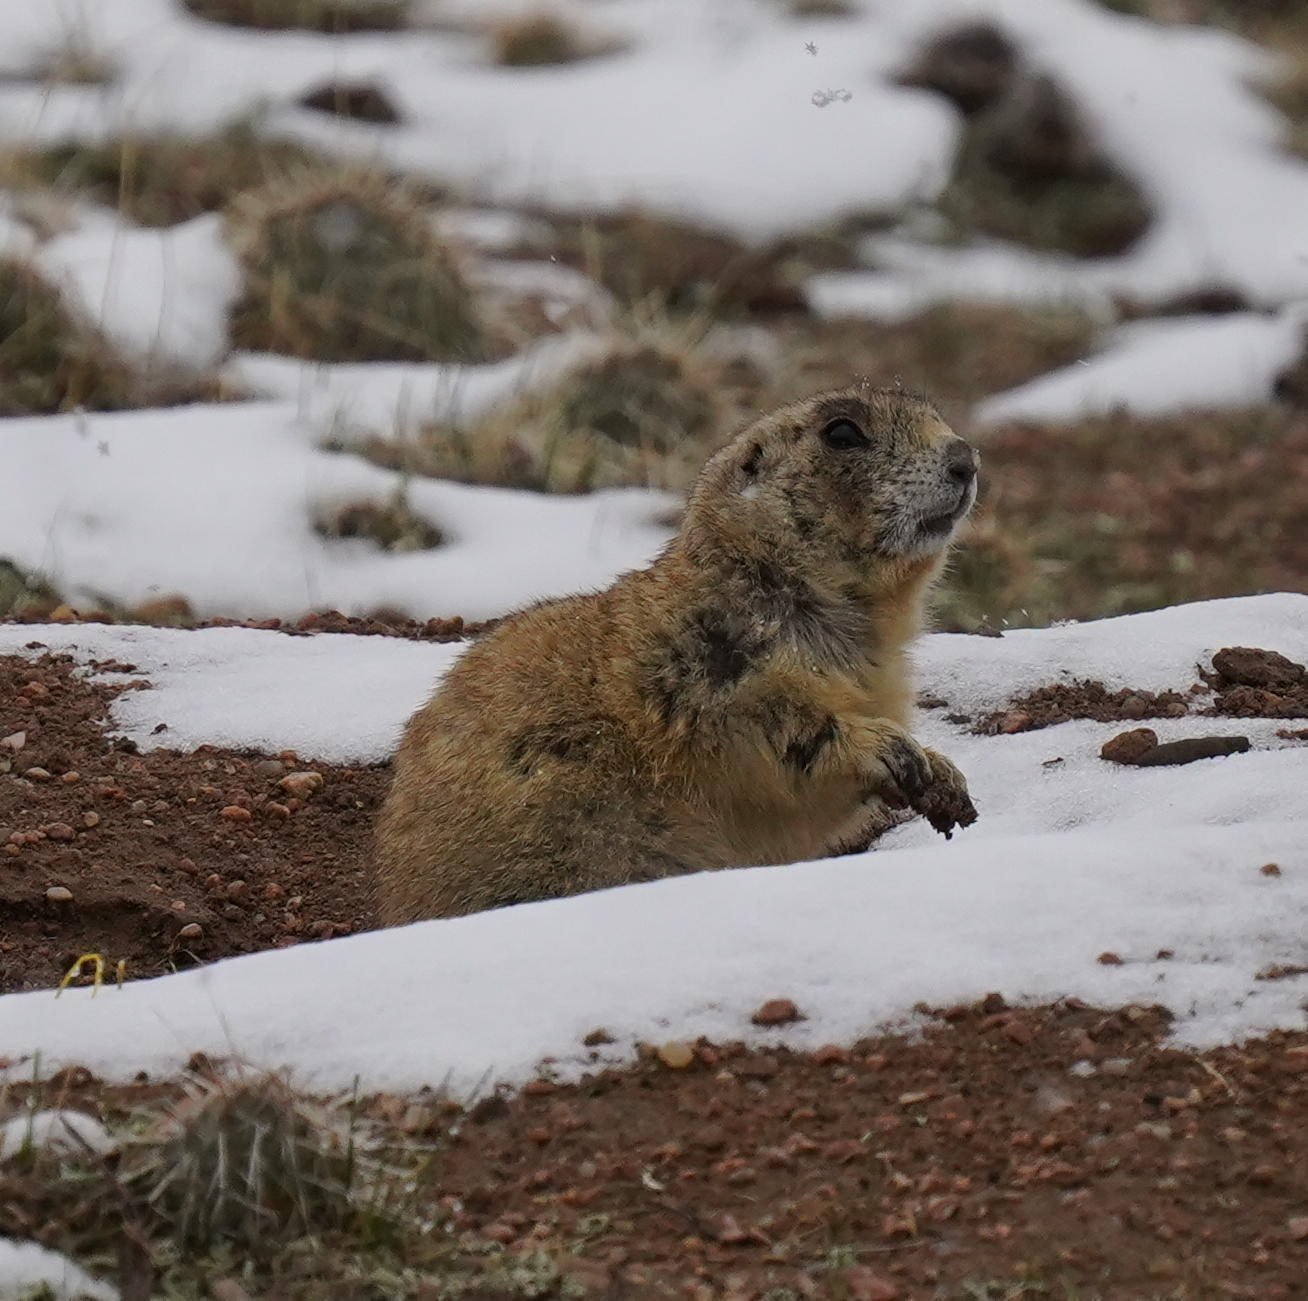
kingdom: Animalia
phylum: Chordata
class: Mammalia
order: Rodentia
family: Sciuridae
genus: Cynomys
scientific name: Cynomys leucurus
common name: White-tailed prairie dog
